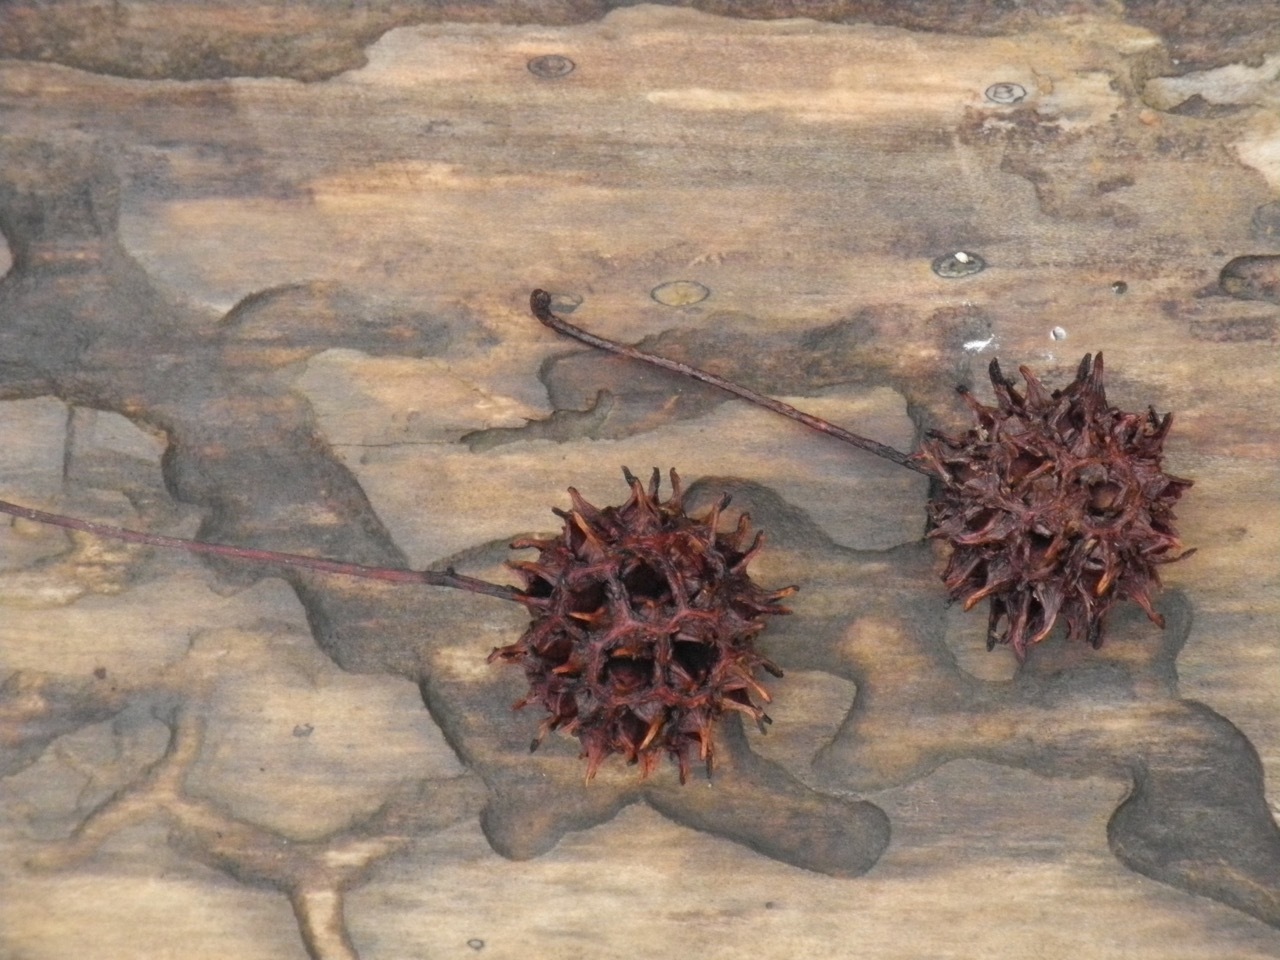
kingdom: Plantae
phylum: Tracheophyta
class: Magnoliopsida
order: Saxifragales
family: Altingiaceae
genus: Liquidambar
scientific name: Liquidambar styraciflua
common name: Sweet gum
